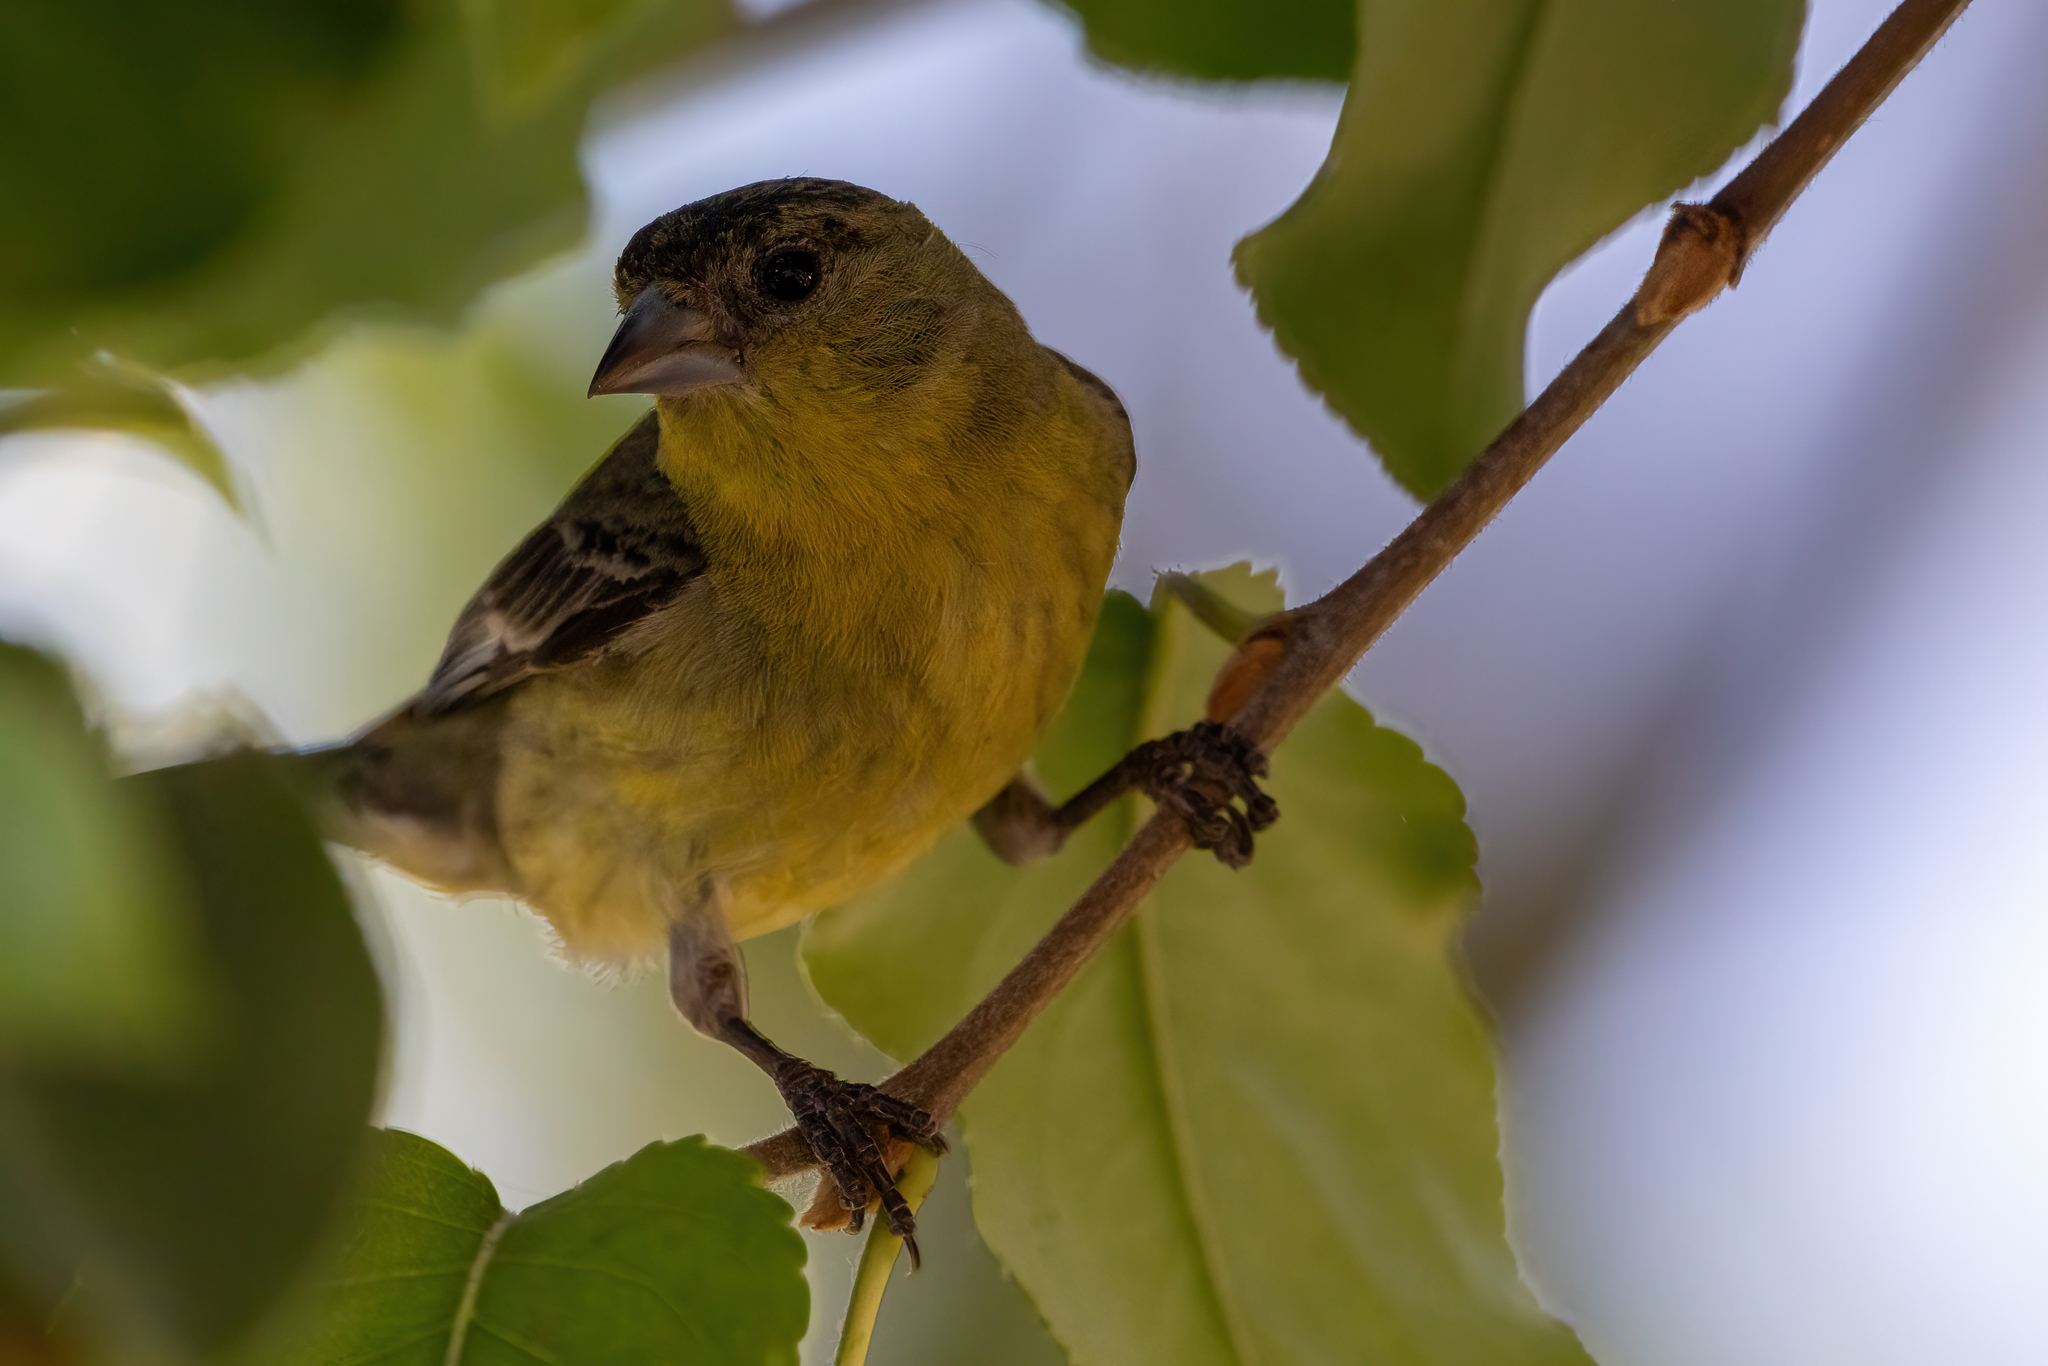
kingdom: Animalia
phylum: Chordata
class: Aves
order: Passeriformes
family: Fringillidae
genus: Spinus
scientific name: Spinus psaltria
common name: Lesser goldfinch
